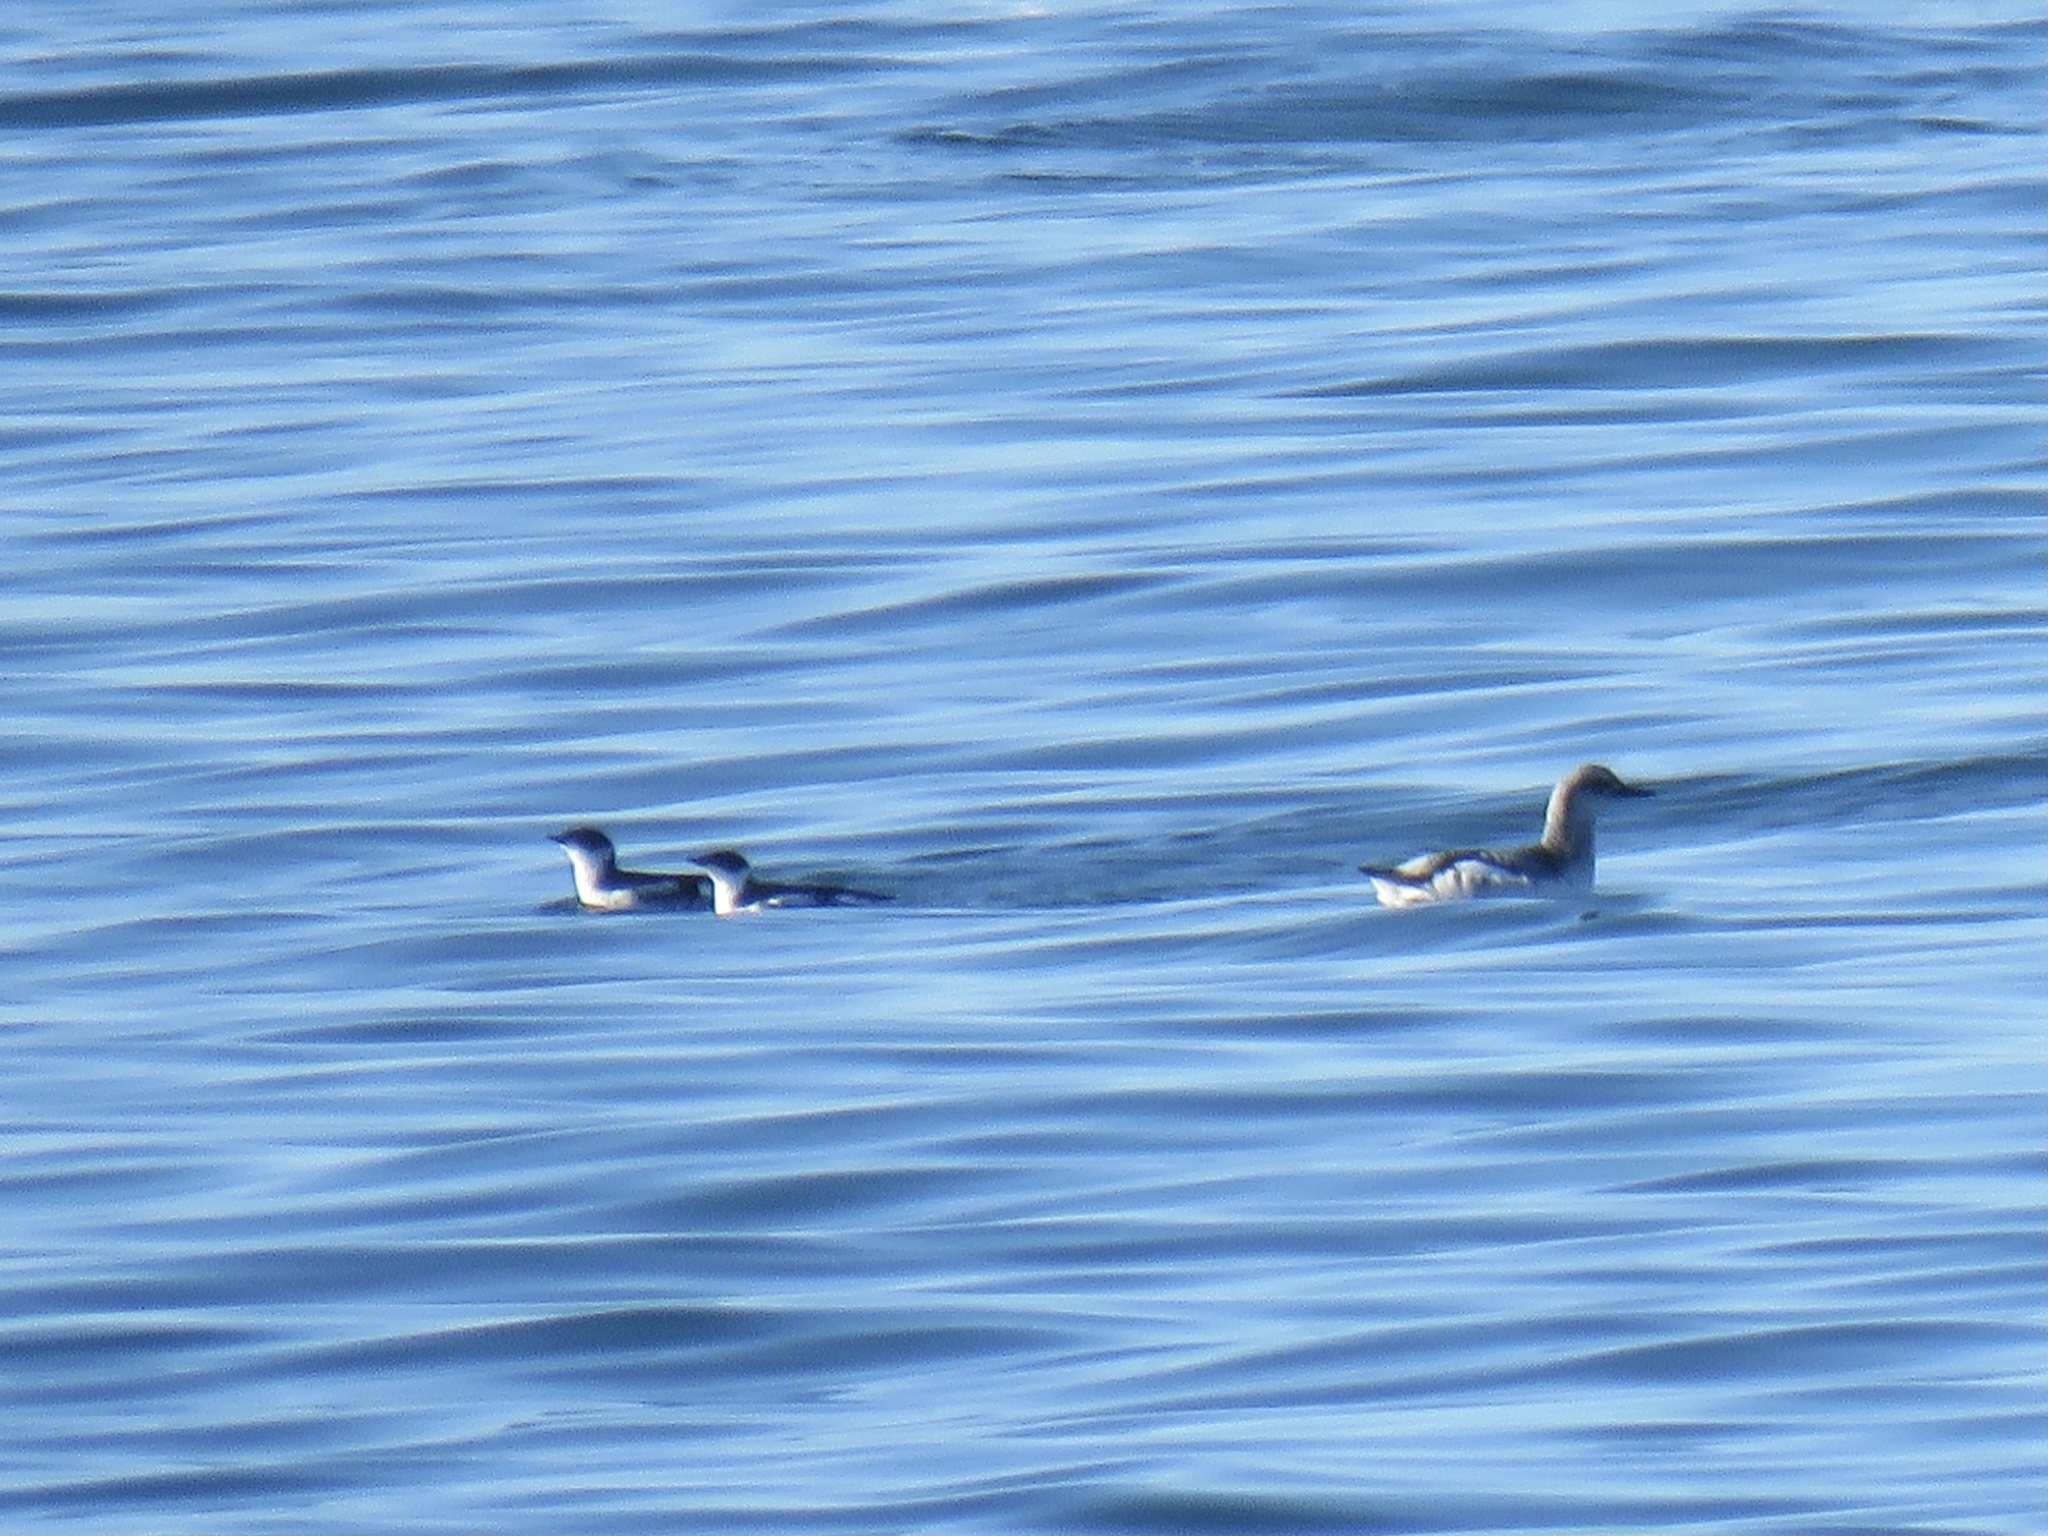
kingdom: Animalia
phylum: Chordata
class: Aves
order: Charadriiformes
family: Alcidae
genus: Cepphus
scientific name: Cepphus columba
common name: Pigeon guillemot
